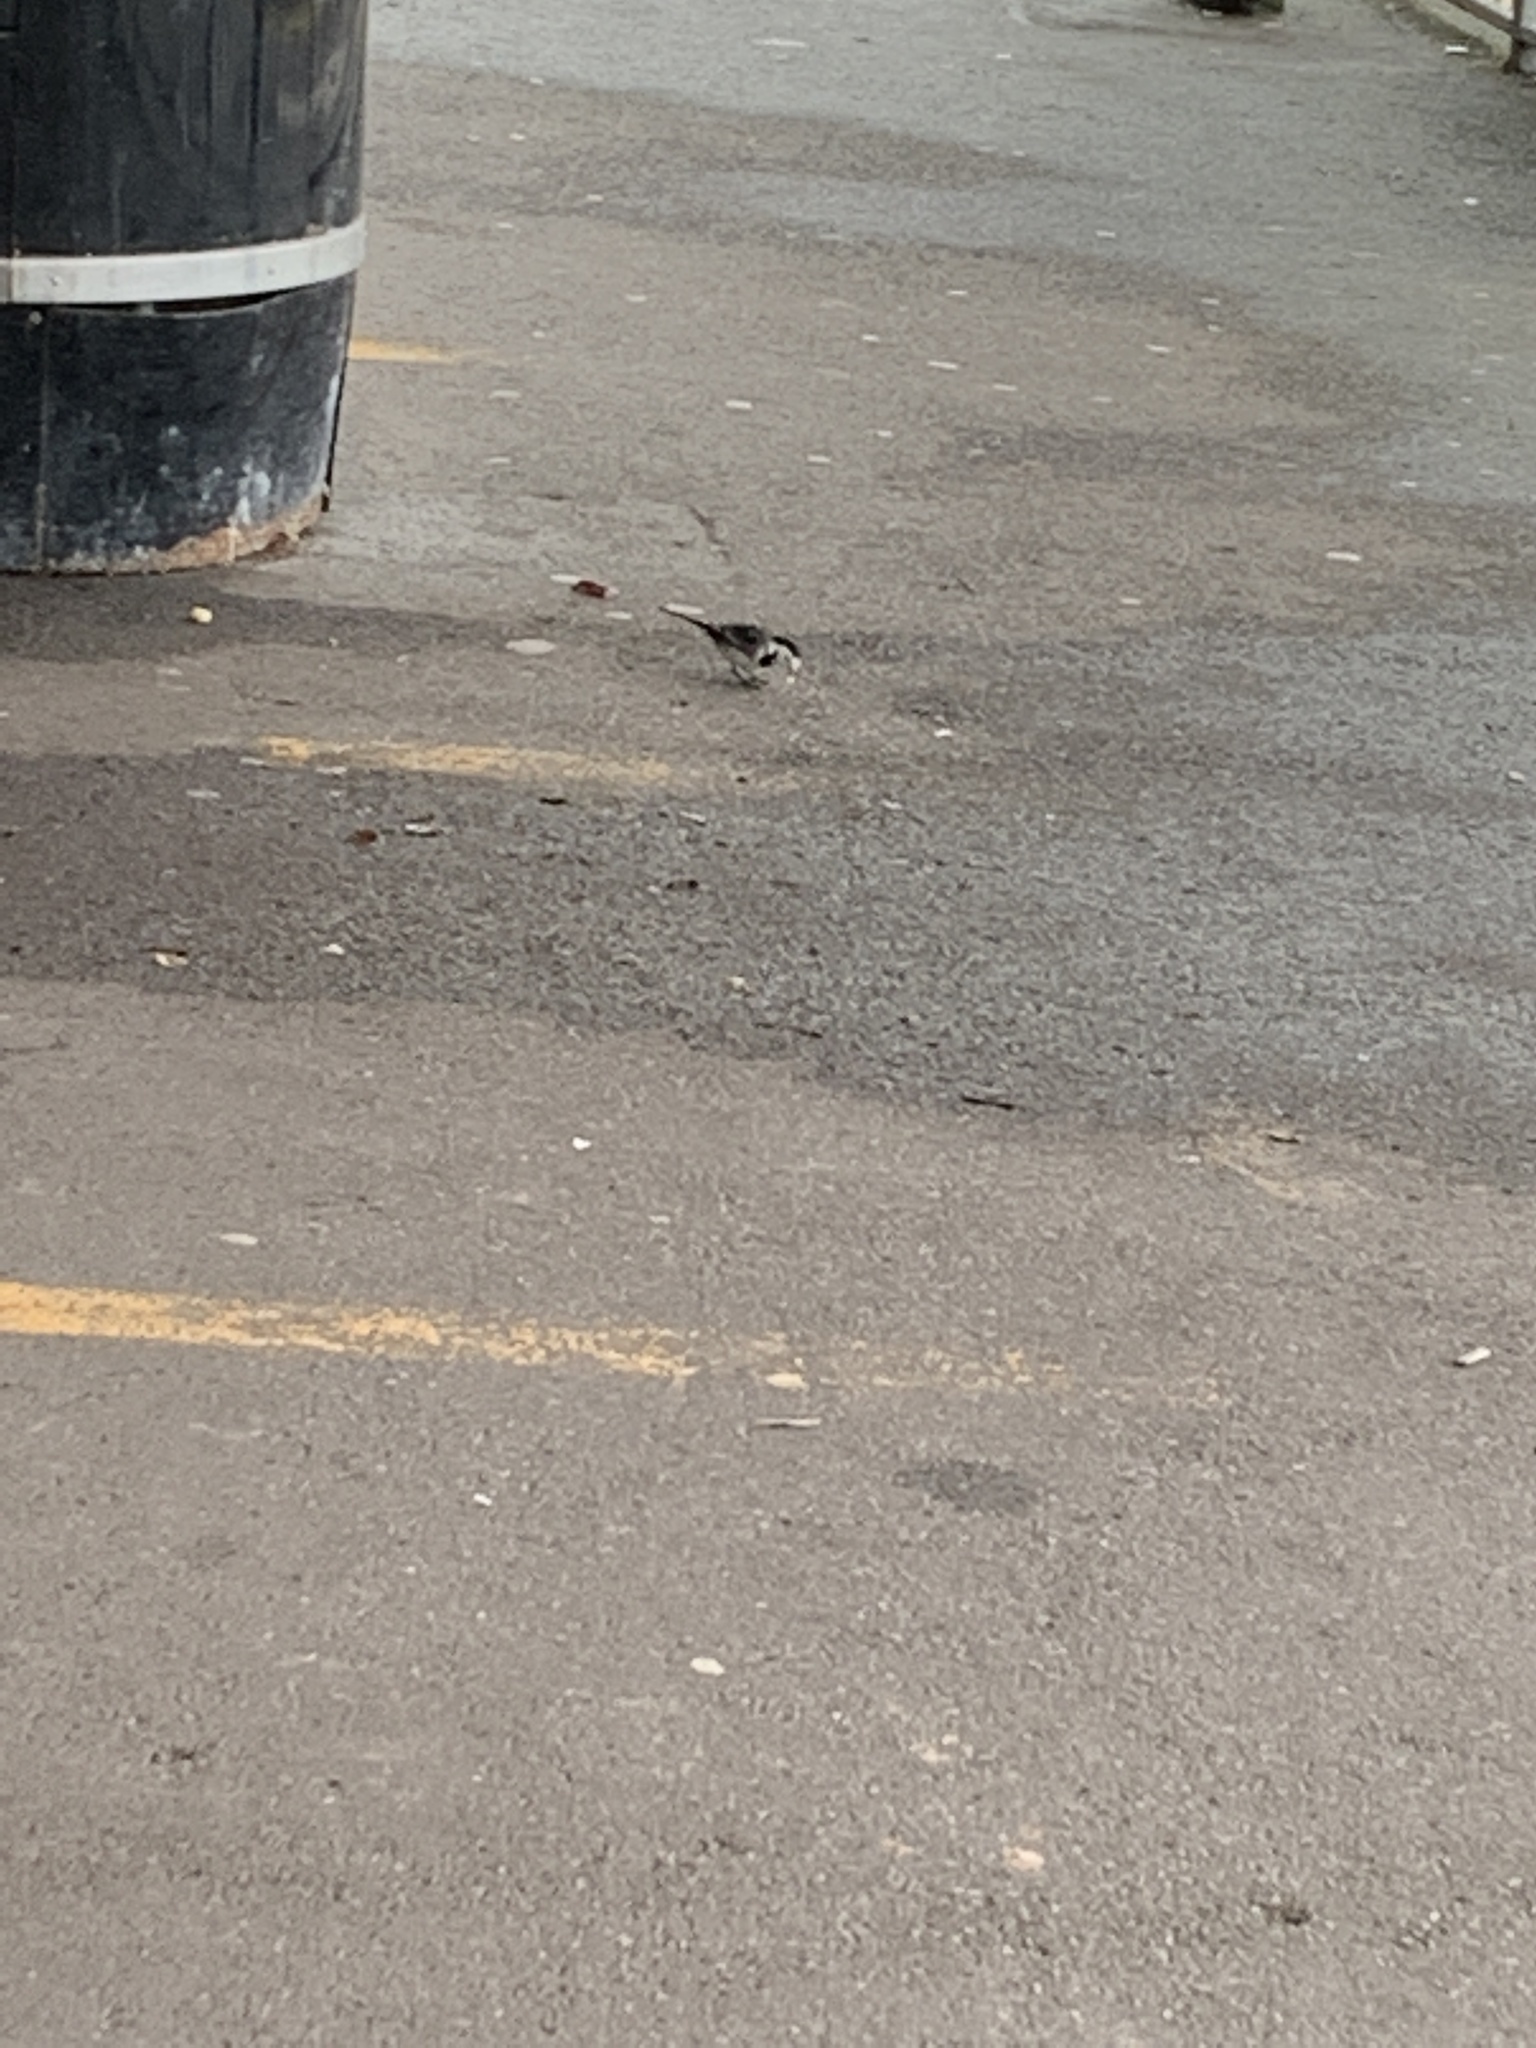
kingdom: Animalia
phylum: Chordata
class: Aves
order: Passeriformes
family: Motacillidae
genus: Motacilla
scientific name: Motacilla alba
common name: White wagtail
